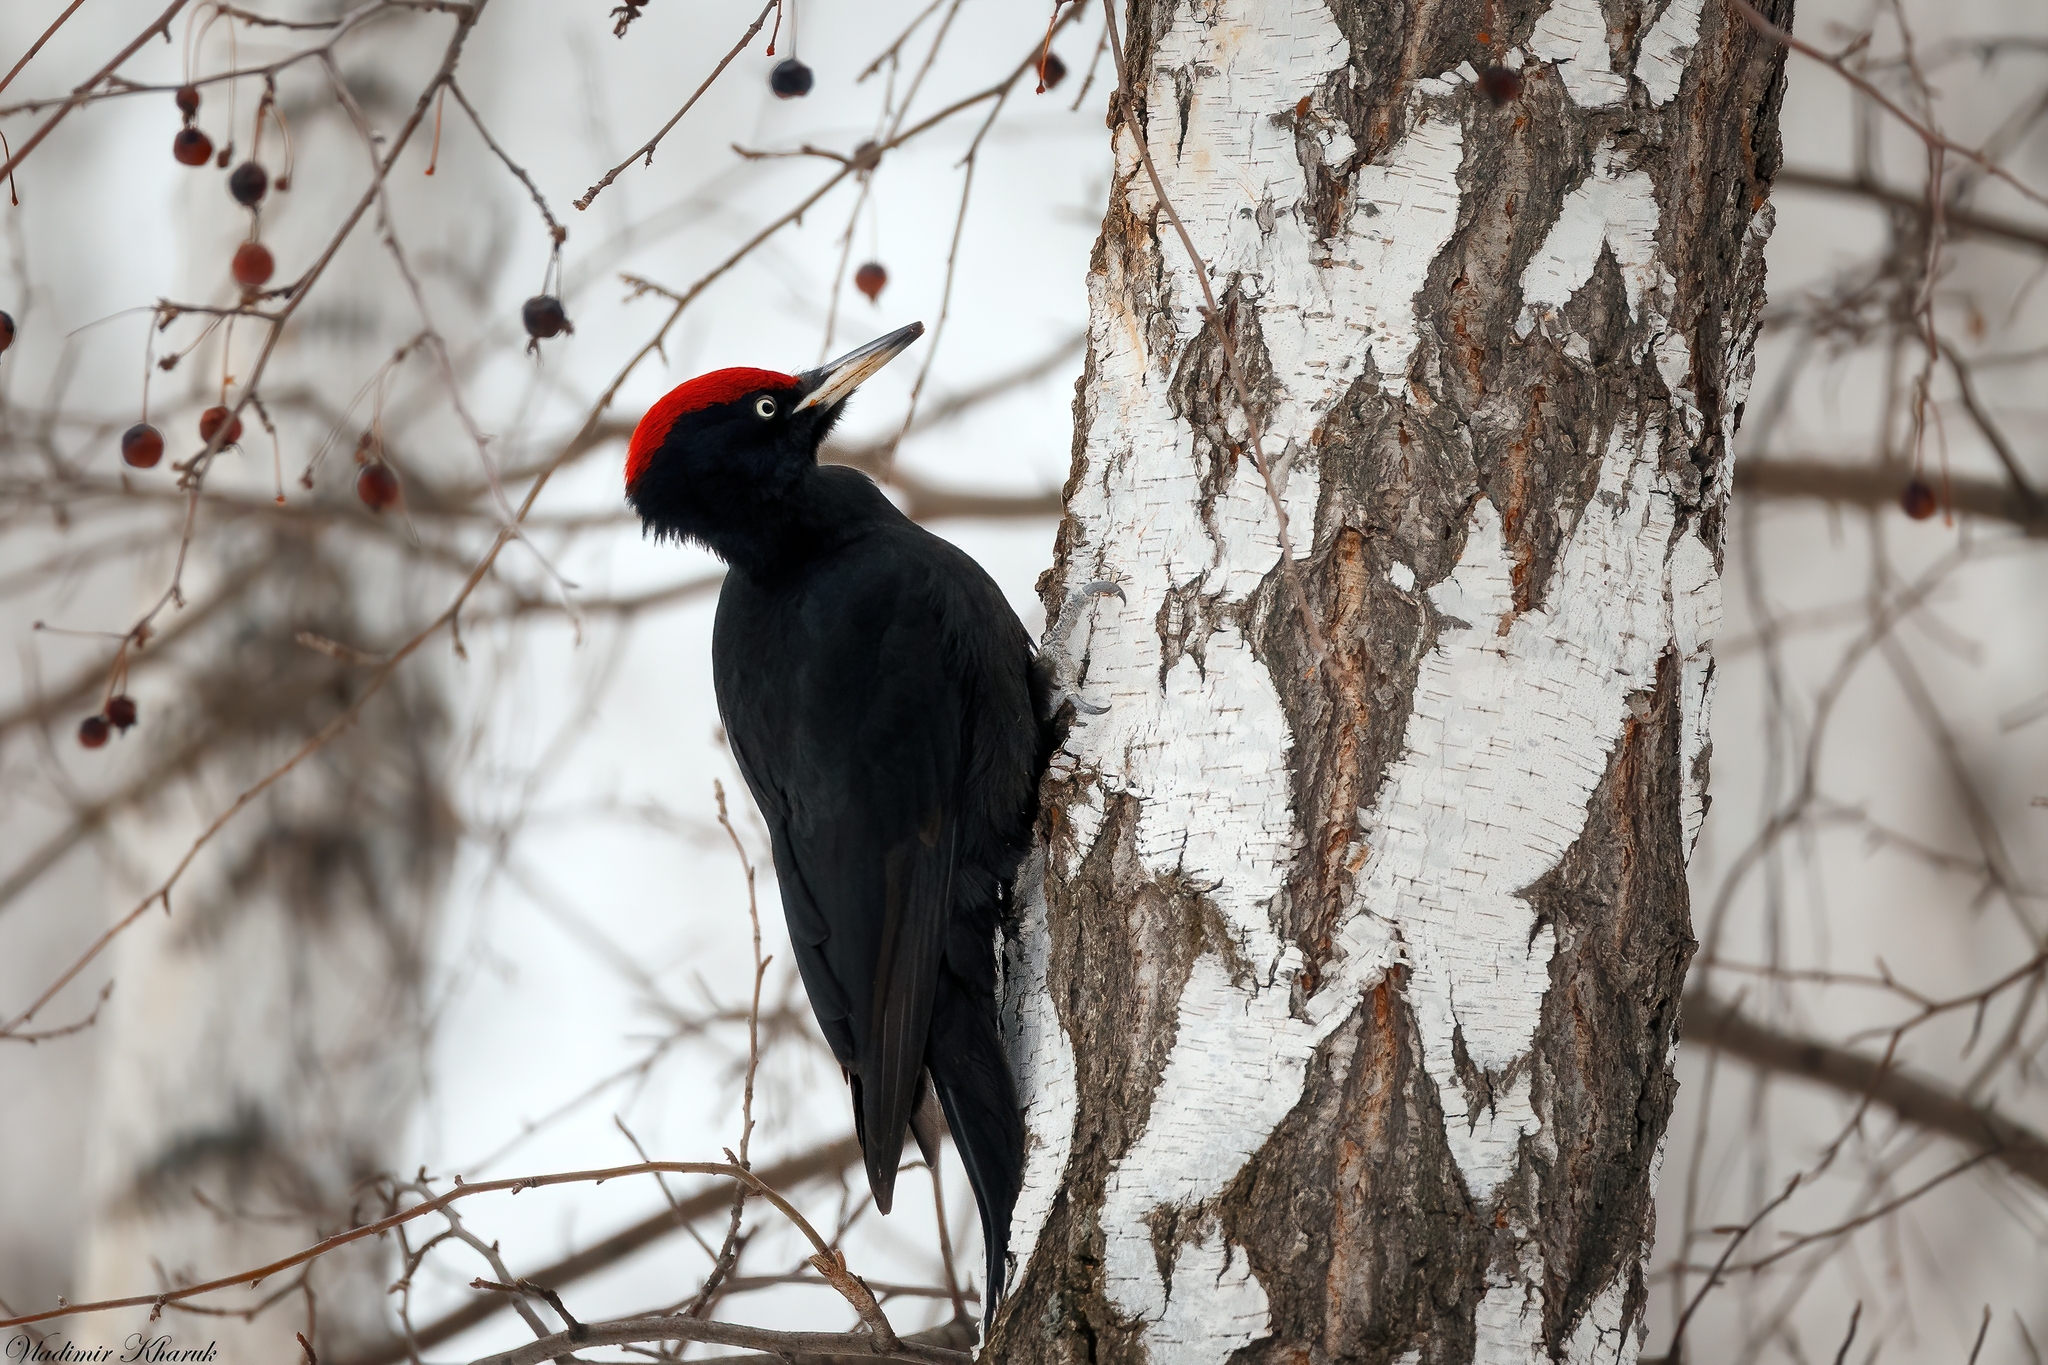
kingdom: Animalia
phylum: Chordata
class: Aves
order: Piciformes
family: Picidae
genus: Dryocopus
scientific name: Dryocopus martius
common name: Black woodpecker
